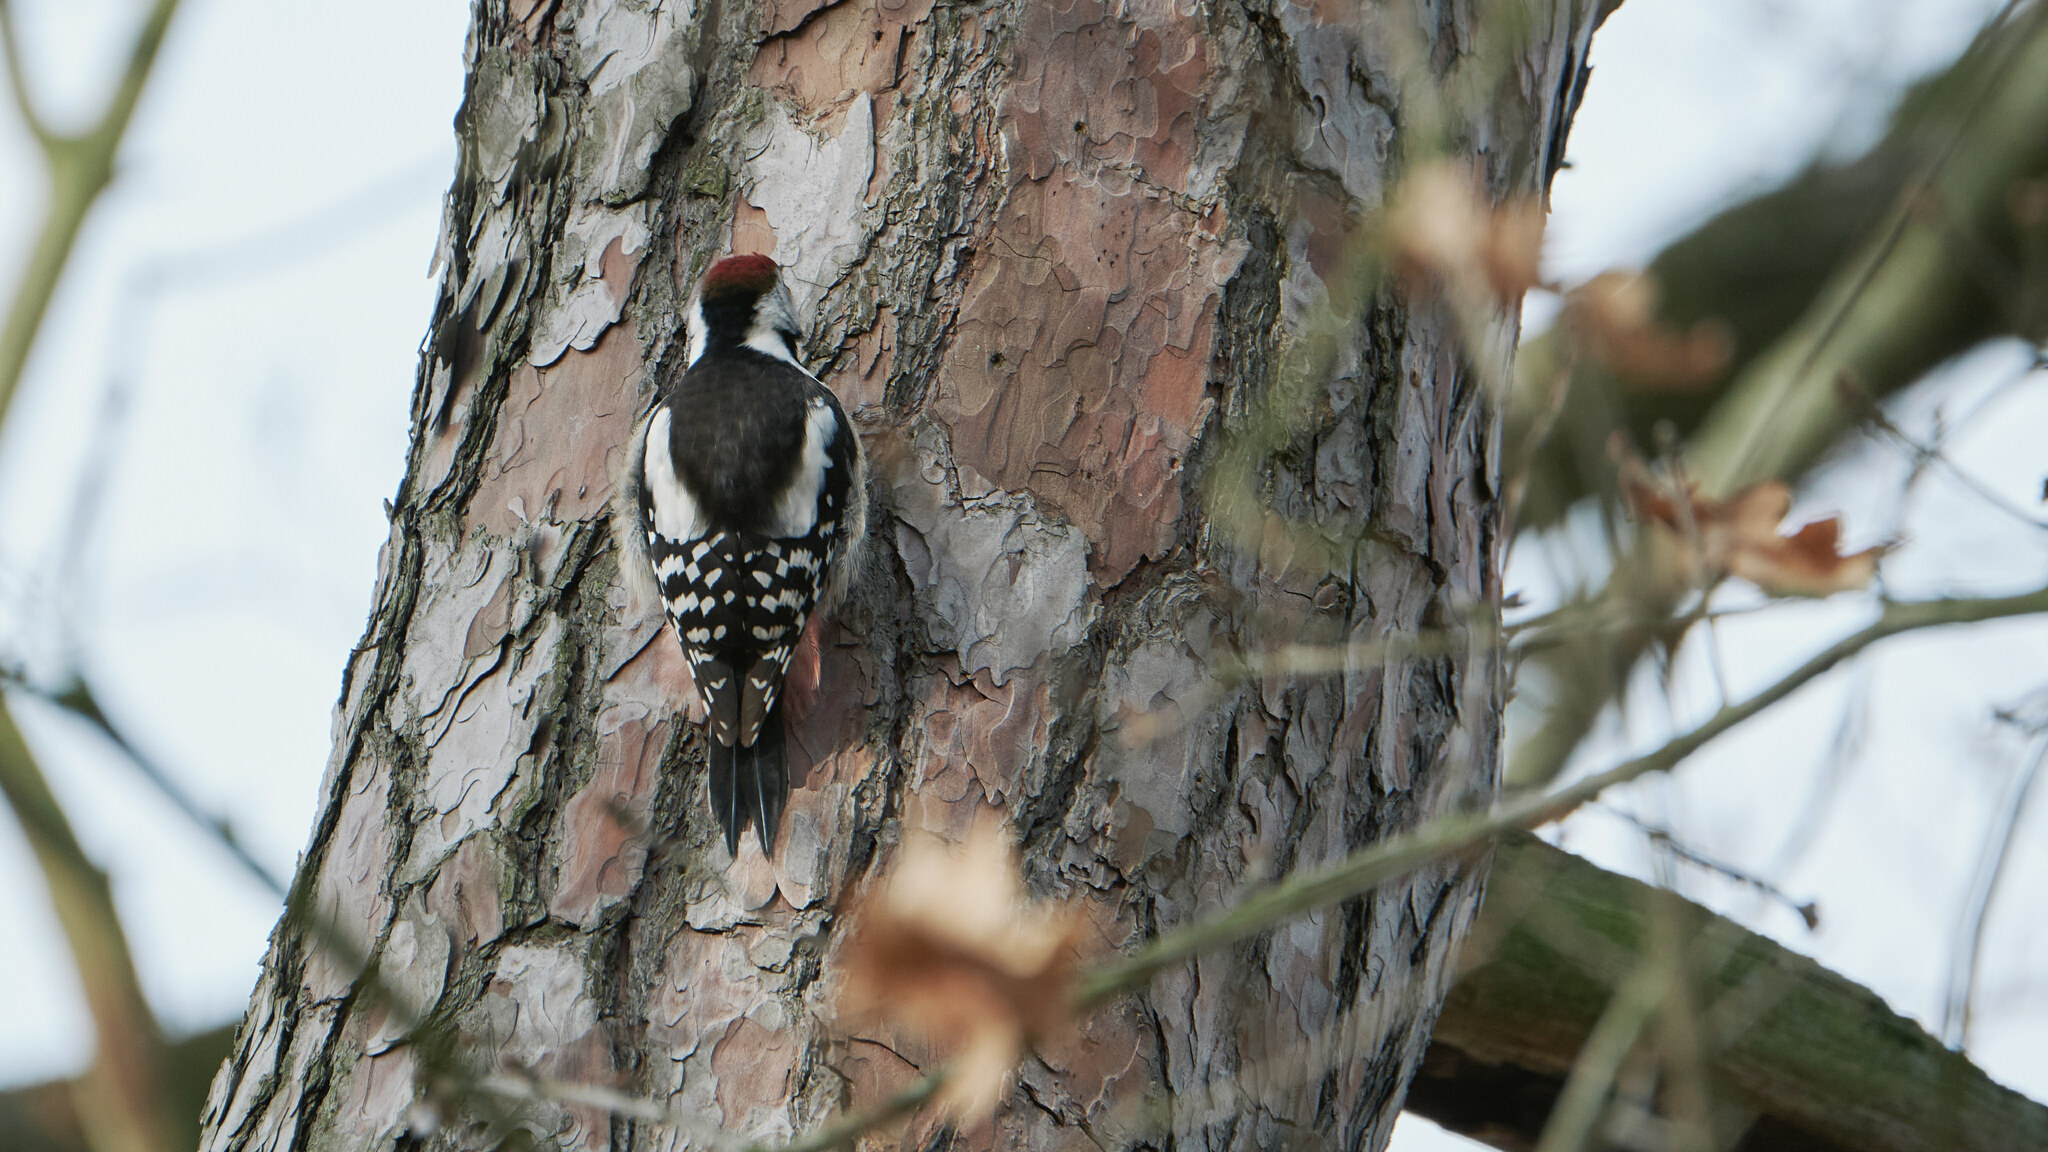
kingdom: Animalia
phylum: Chordata
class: Aves
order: Piciformes
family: Picidae
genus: Dendrocoptes
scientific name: Dendrocoptes medius
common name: Middle spotted woodpecker
